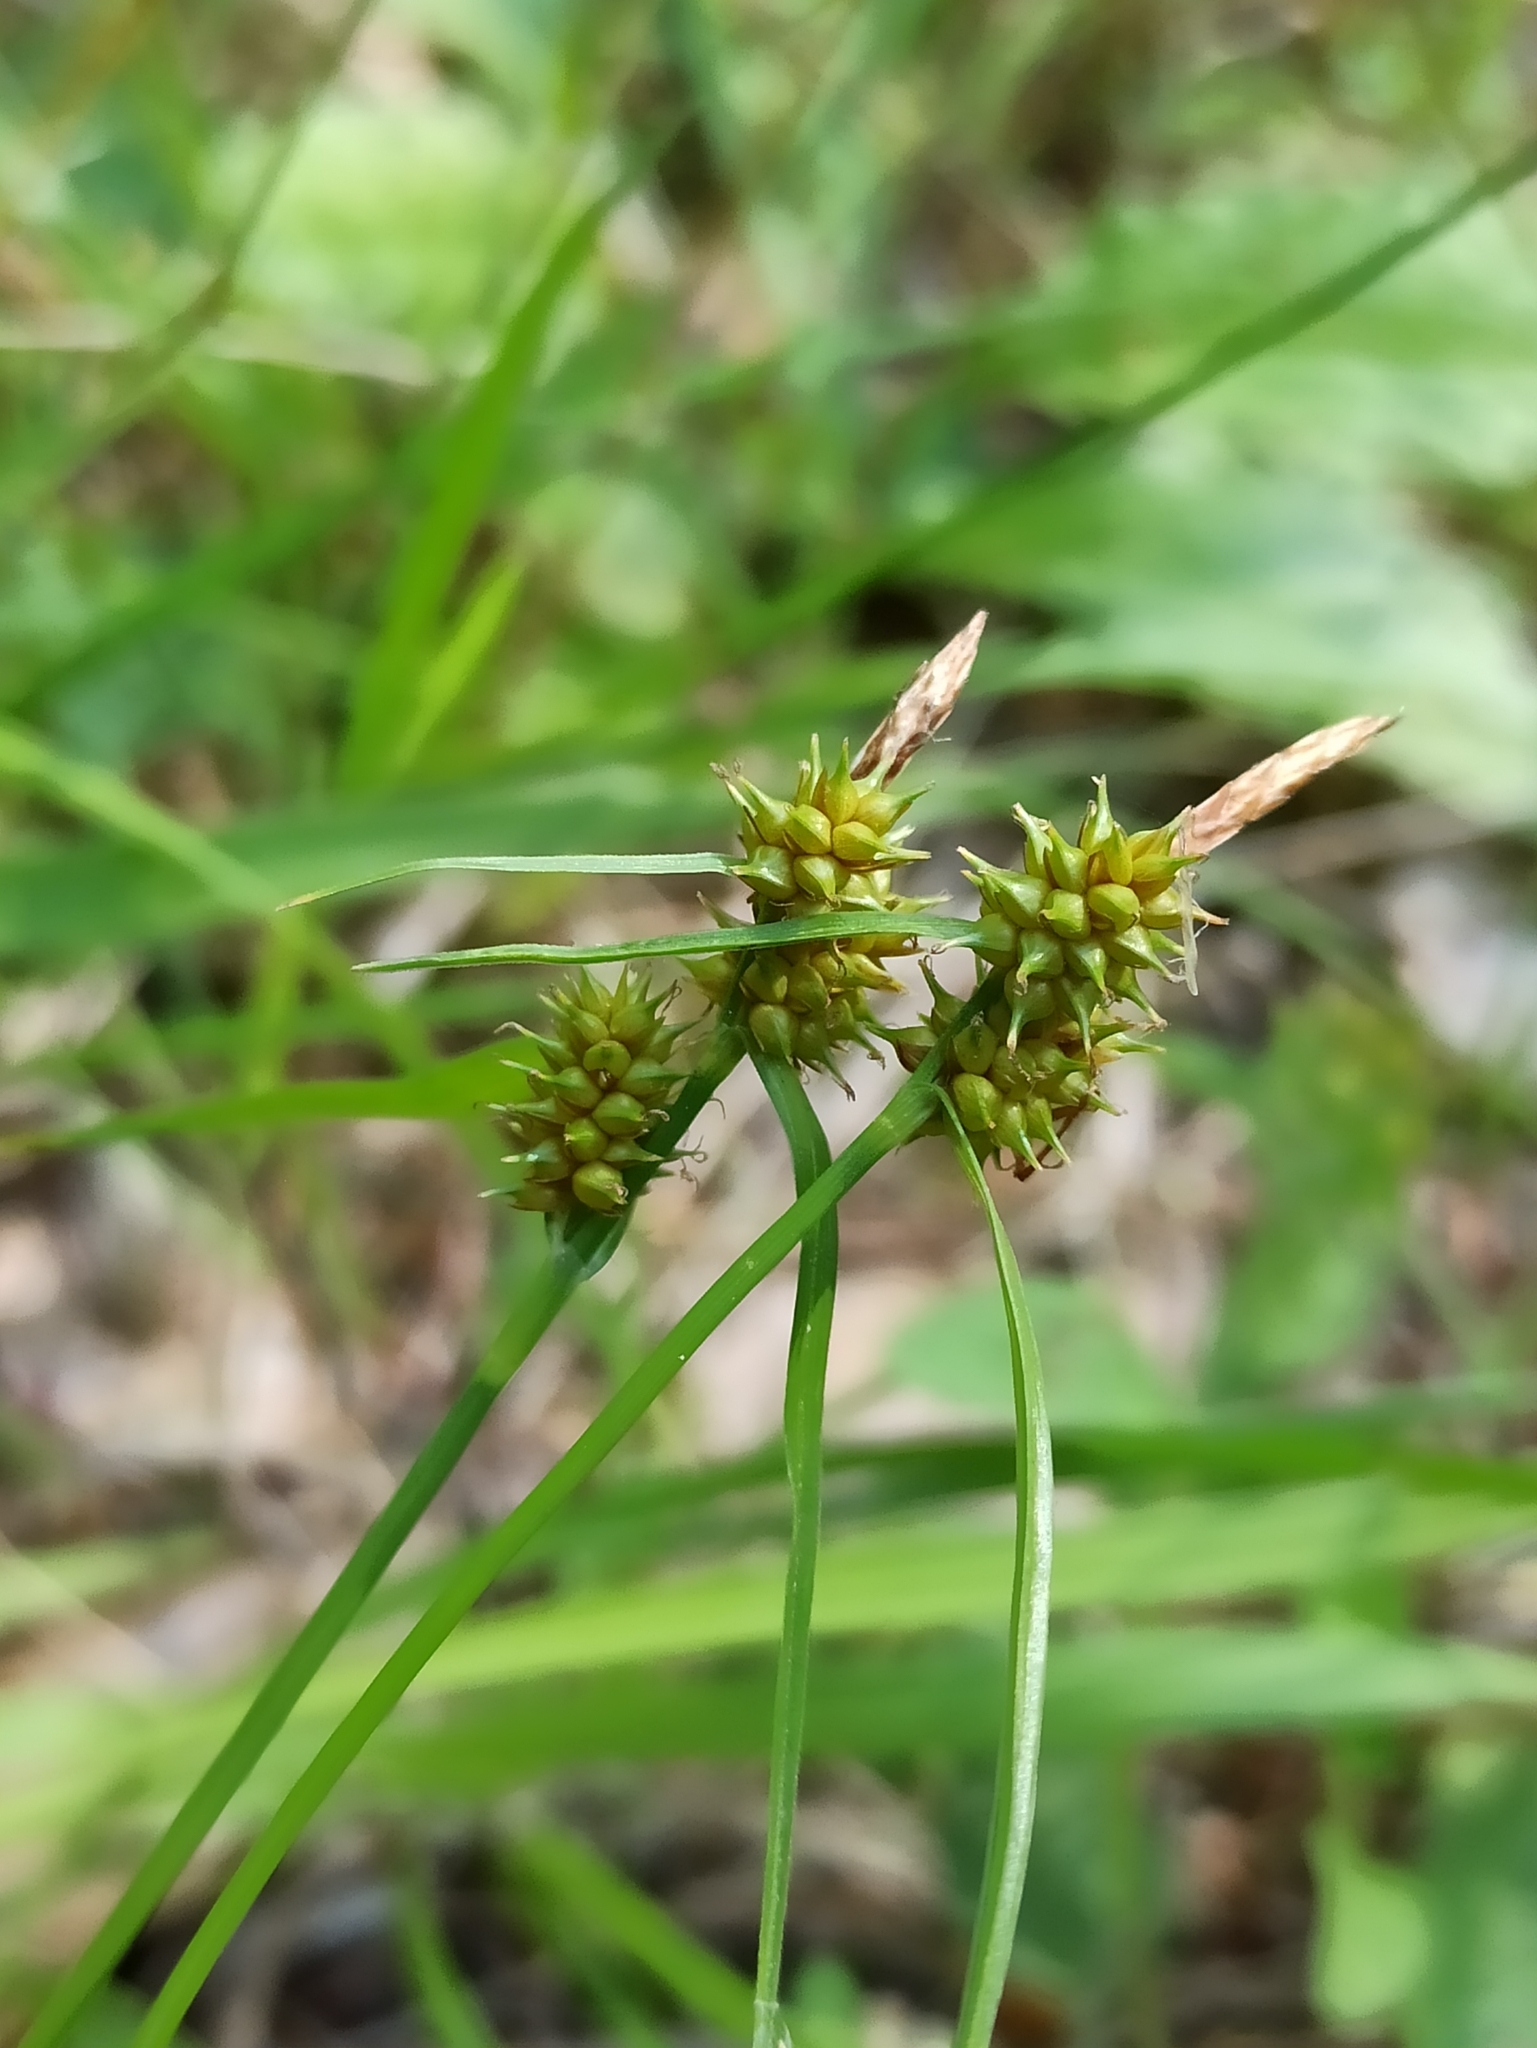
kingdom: Plantae
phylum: Tracheophyta
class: Liliopsida
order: Poales
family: Cyperaceae
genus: Carex
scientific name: Carex demissa
